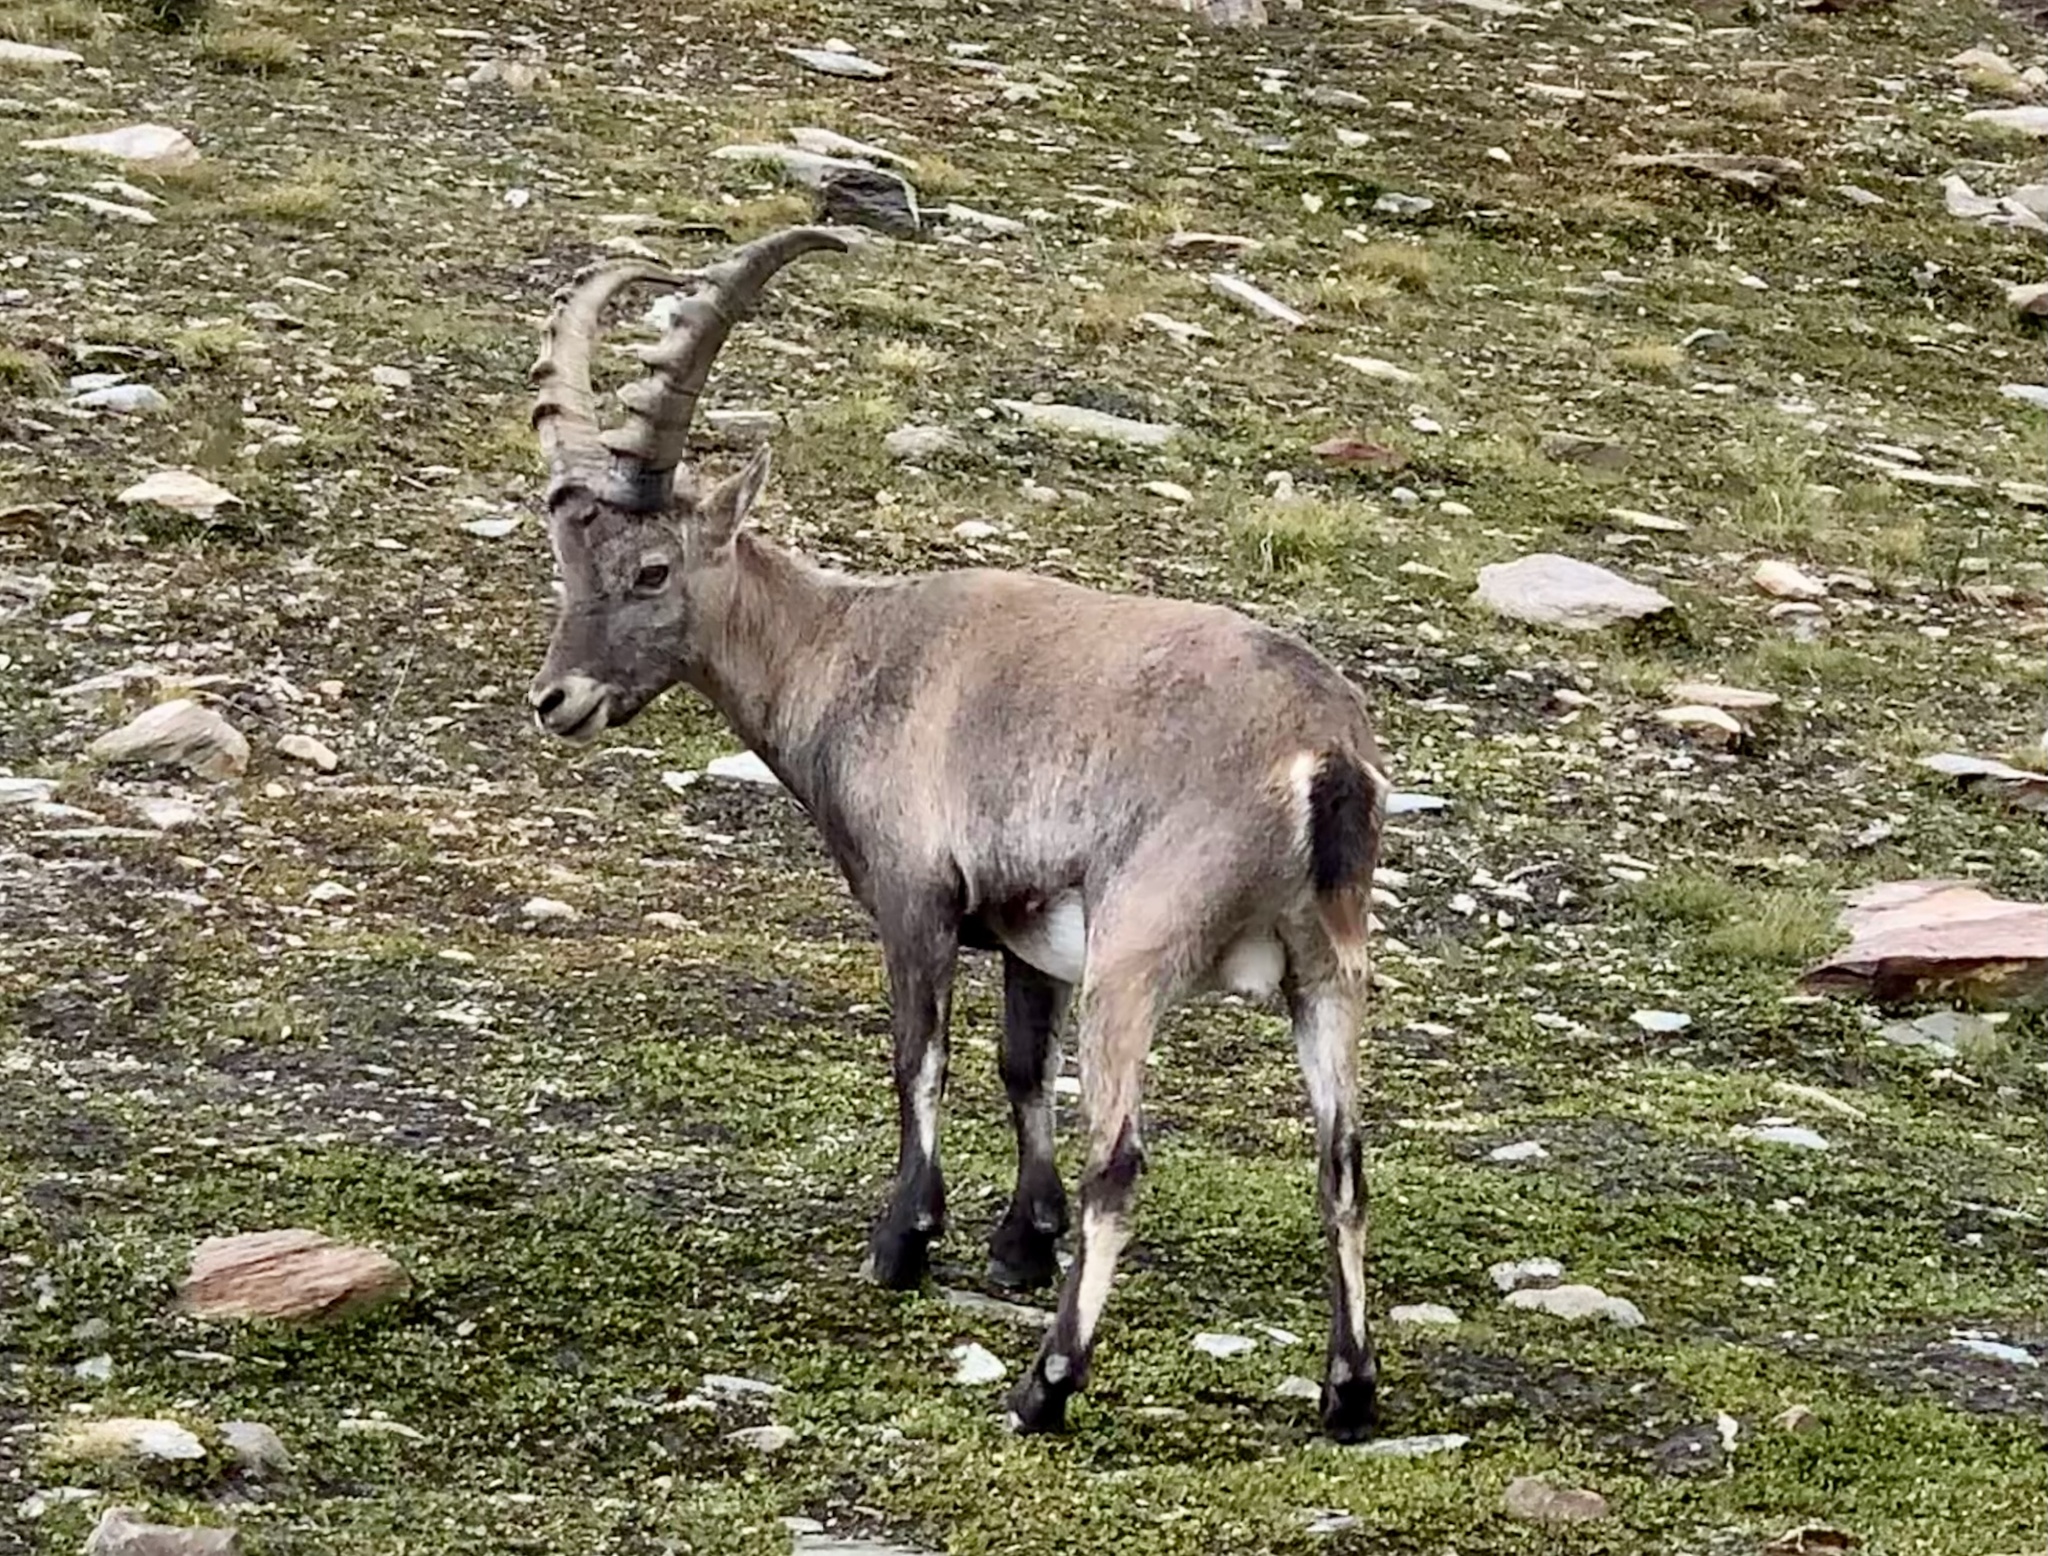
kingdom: Animalia
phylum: Chordata
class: Mammalia
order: Artiodactyla
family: Bovidae
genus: Capra
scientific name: Capra ibex
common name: Alpine ibex
